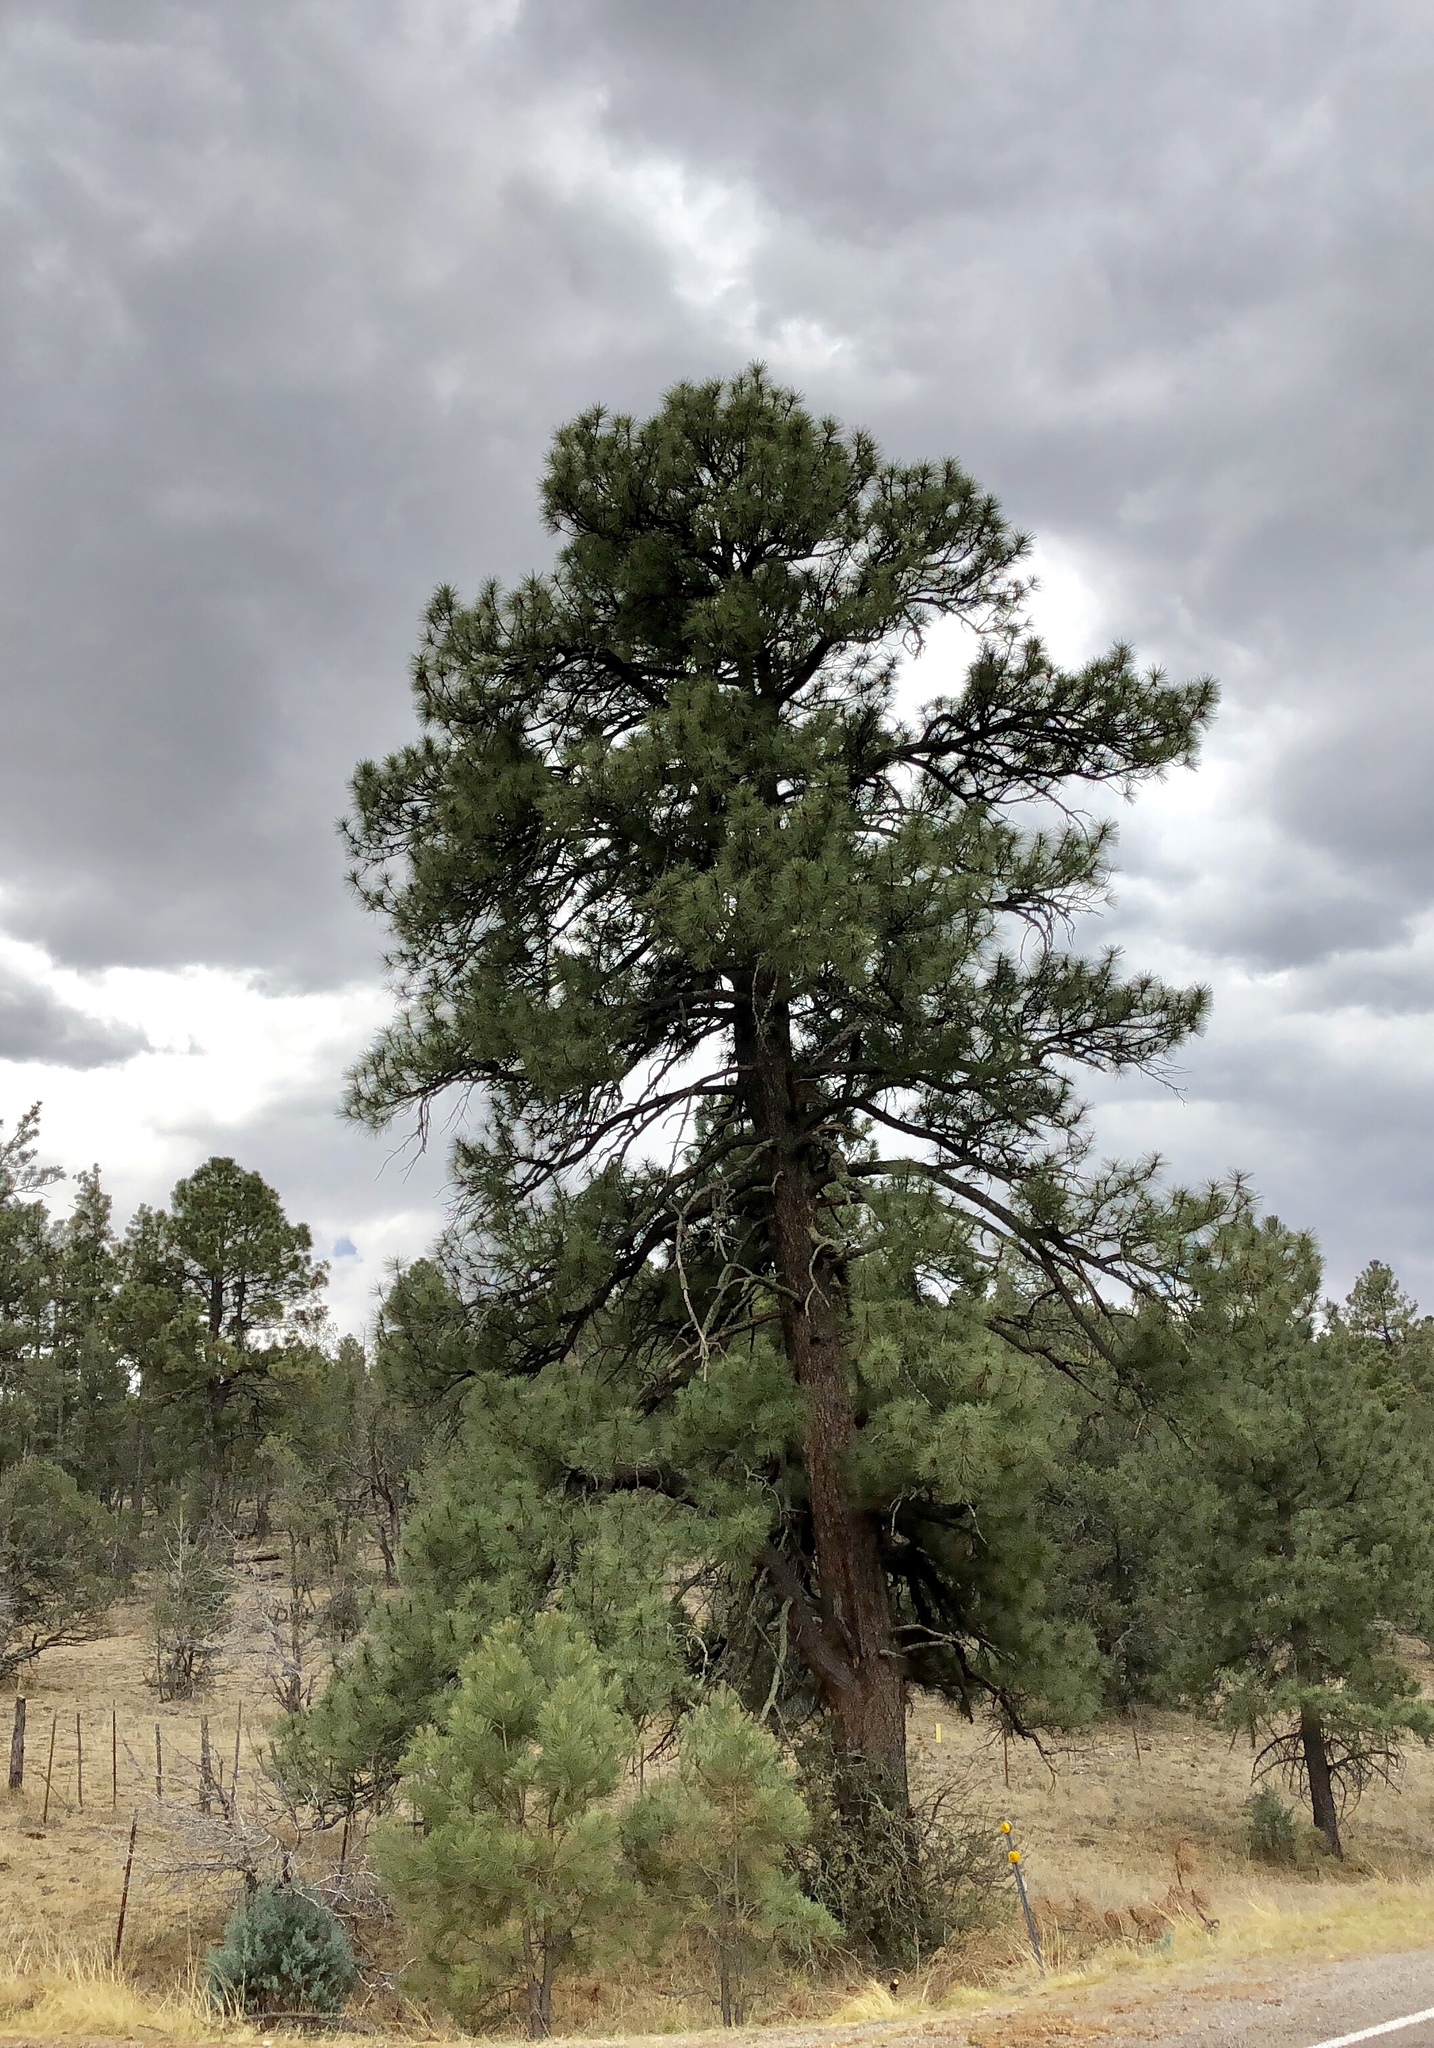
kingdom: Plantae
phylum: Tracheophyta
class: Pinopsida
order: Pinales
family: Pinaceae
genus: Pinus
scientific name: Pinus ponderosa
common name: Western yellow-pine
